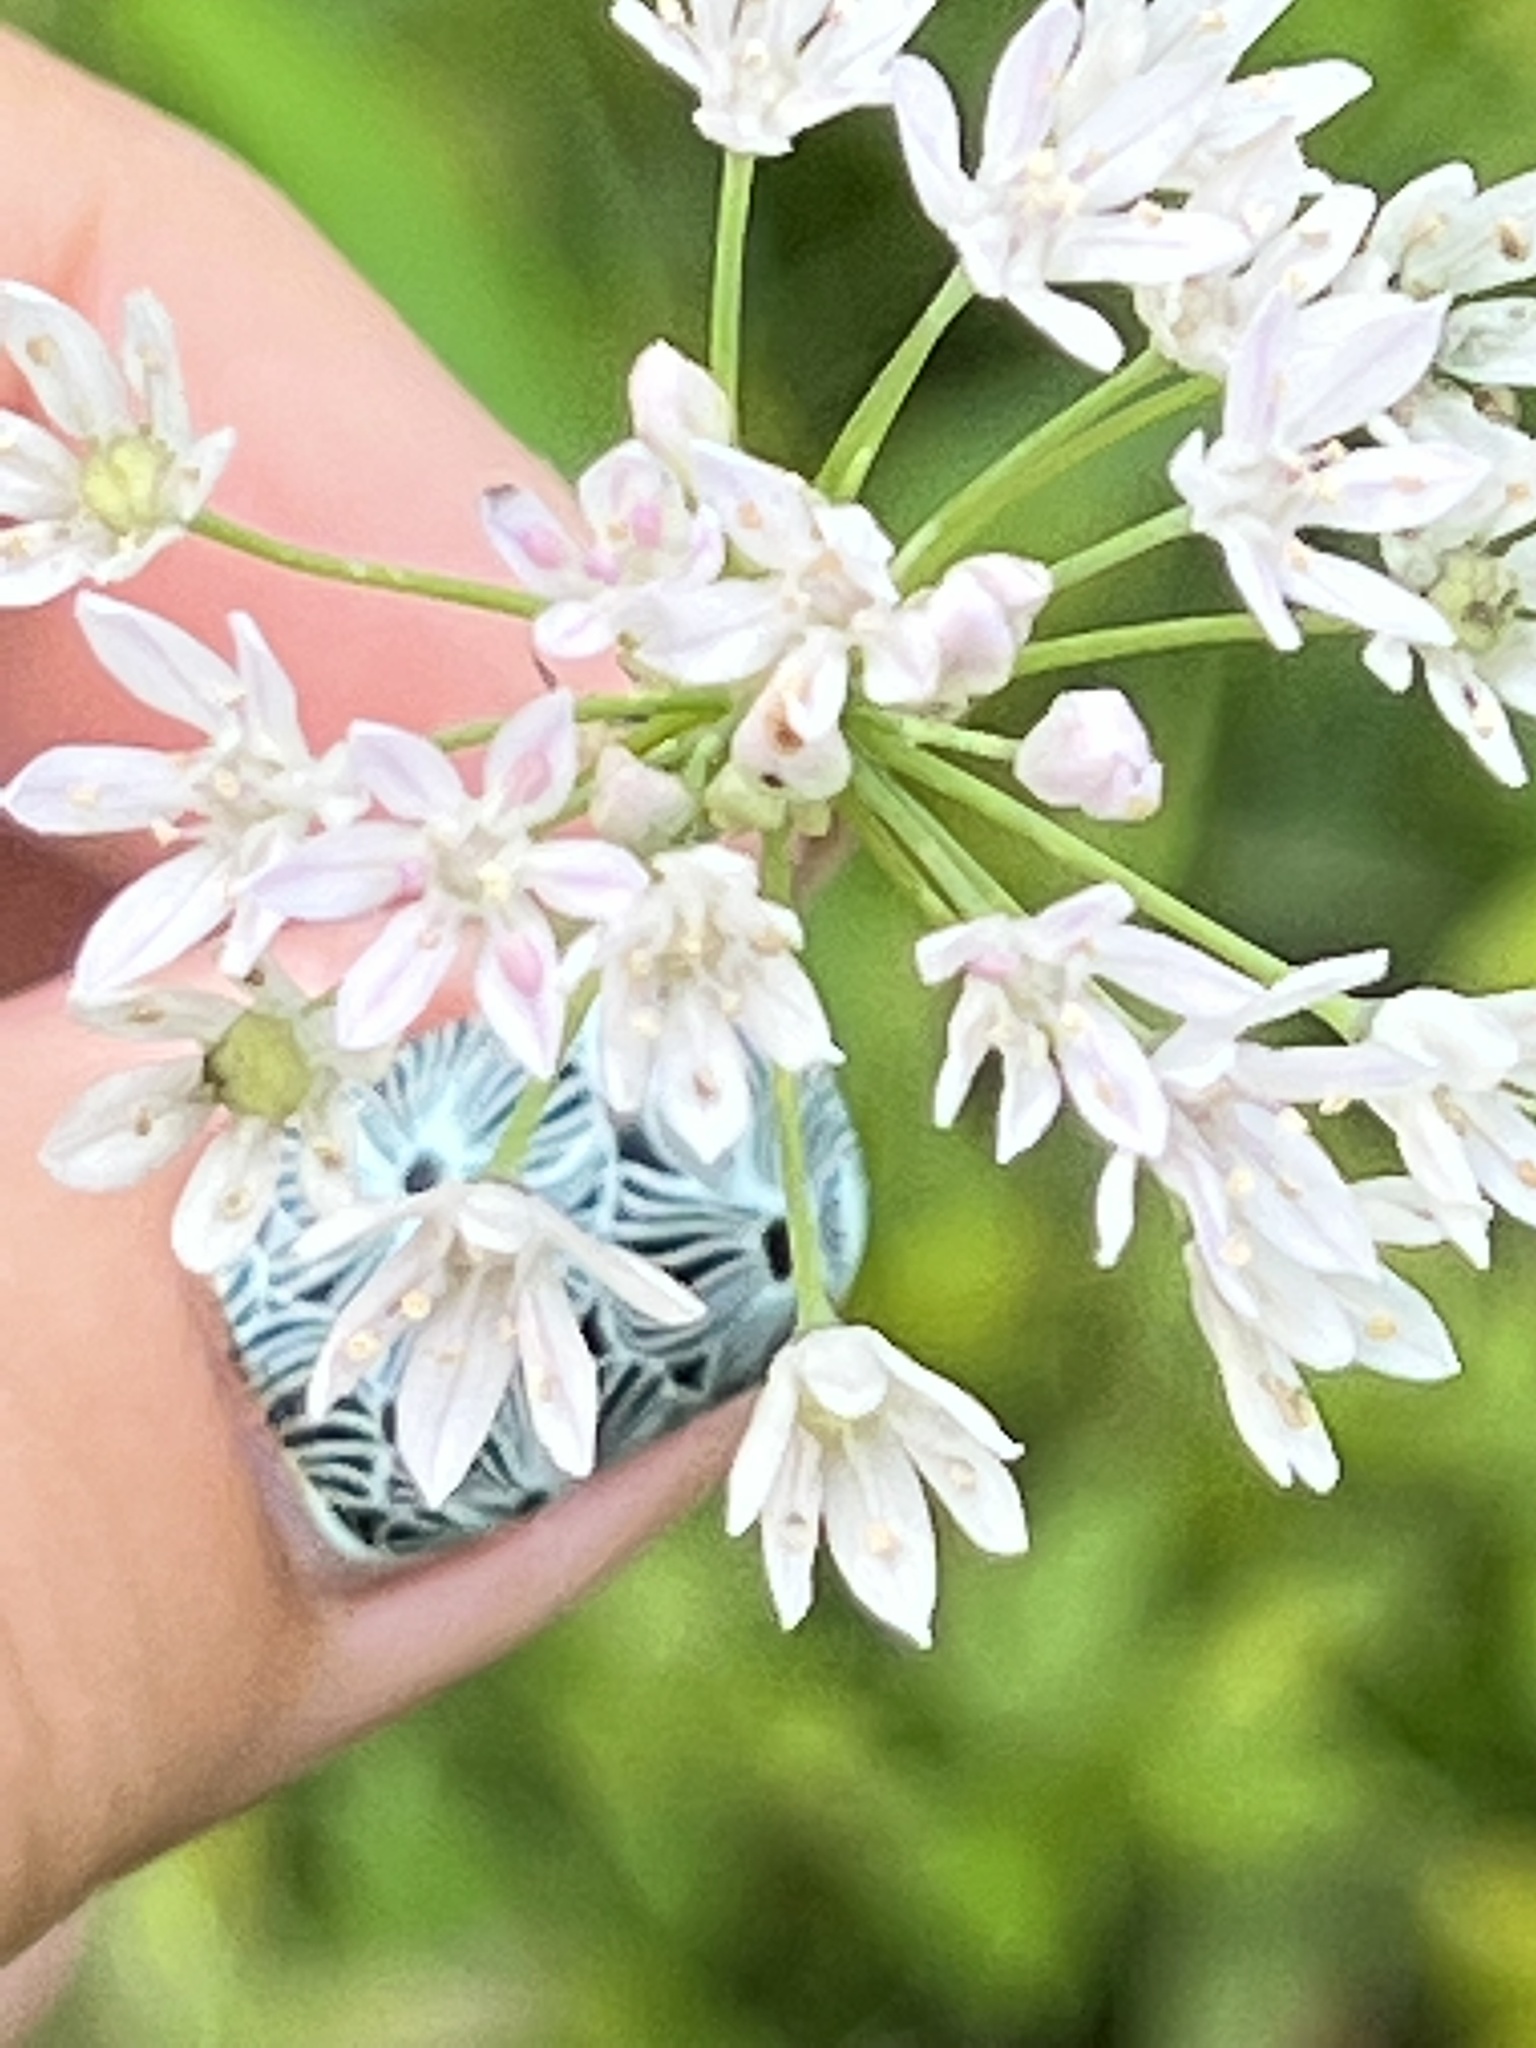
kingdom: Plantae
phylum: Tracheophyta
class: Liliopsida
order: Asparagales
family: Amaryllidaceae
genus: Allium
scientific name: Allium canadense
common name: Meadow garlic
